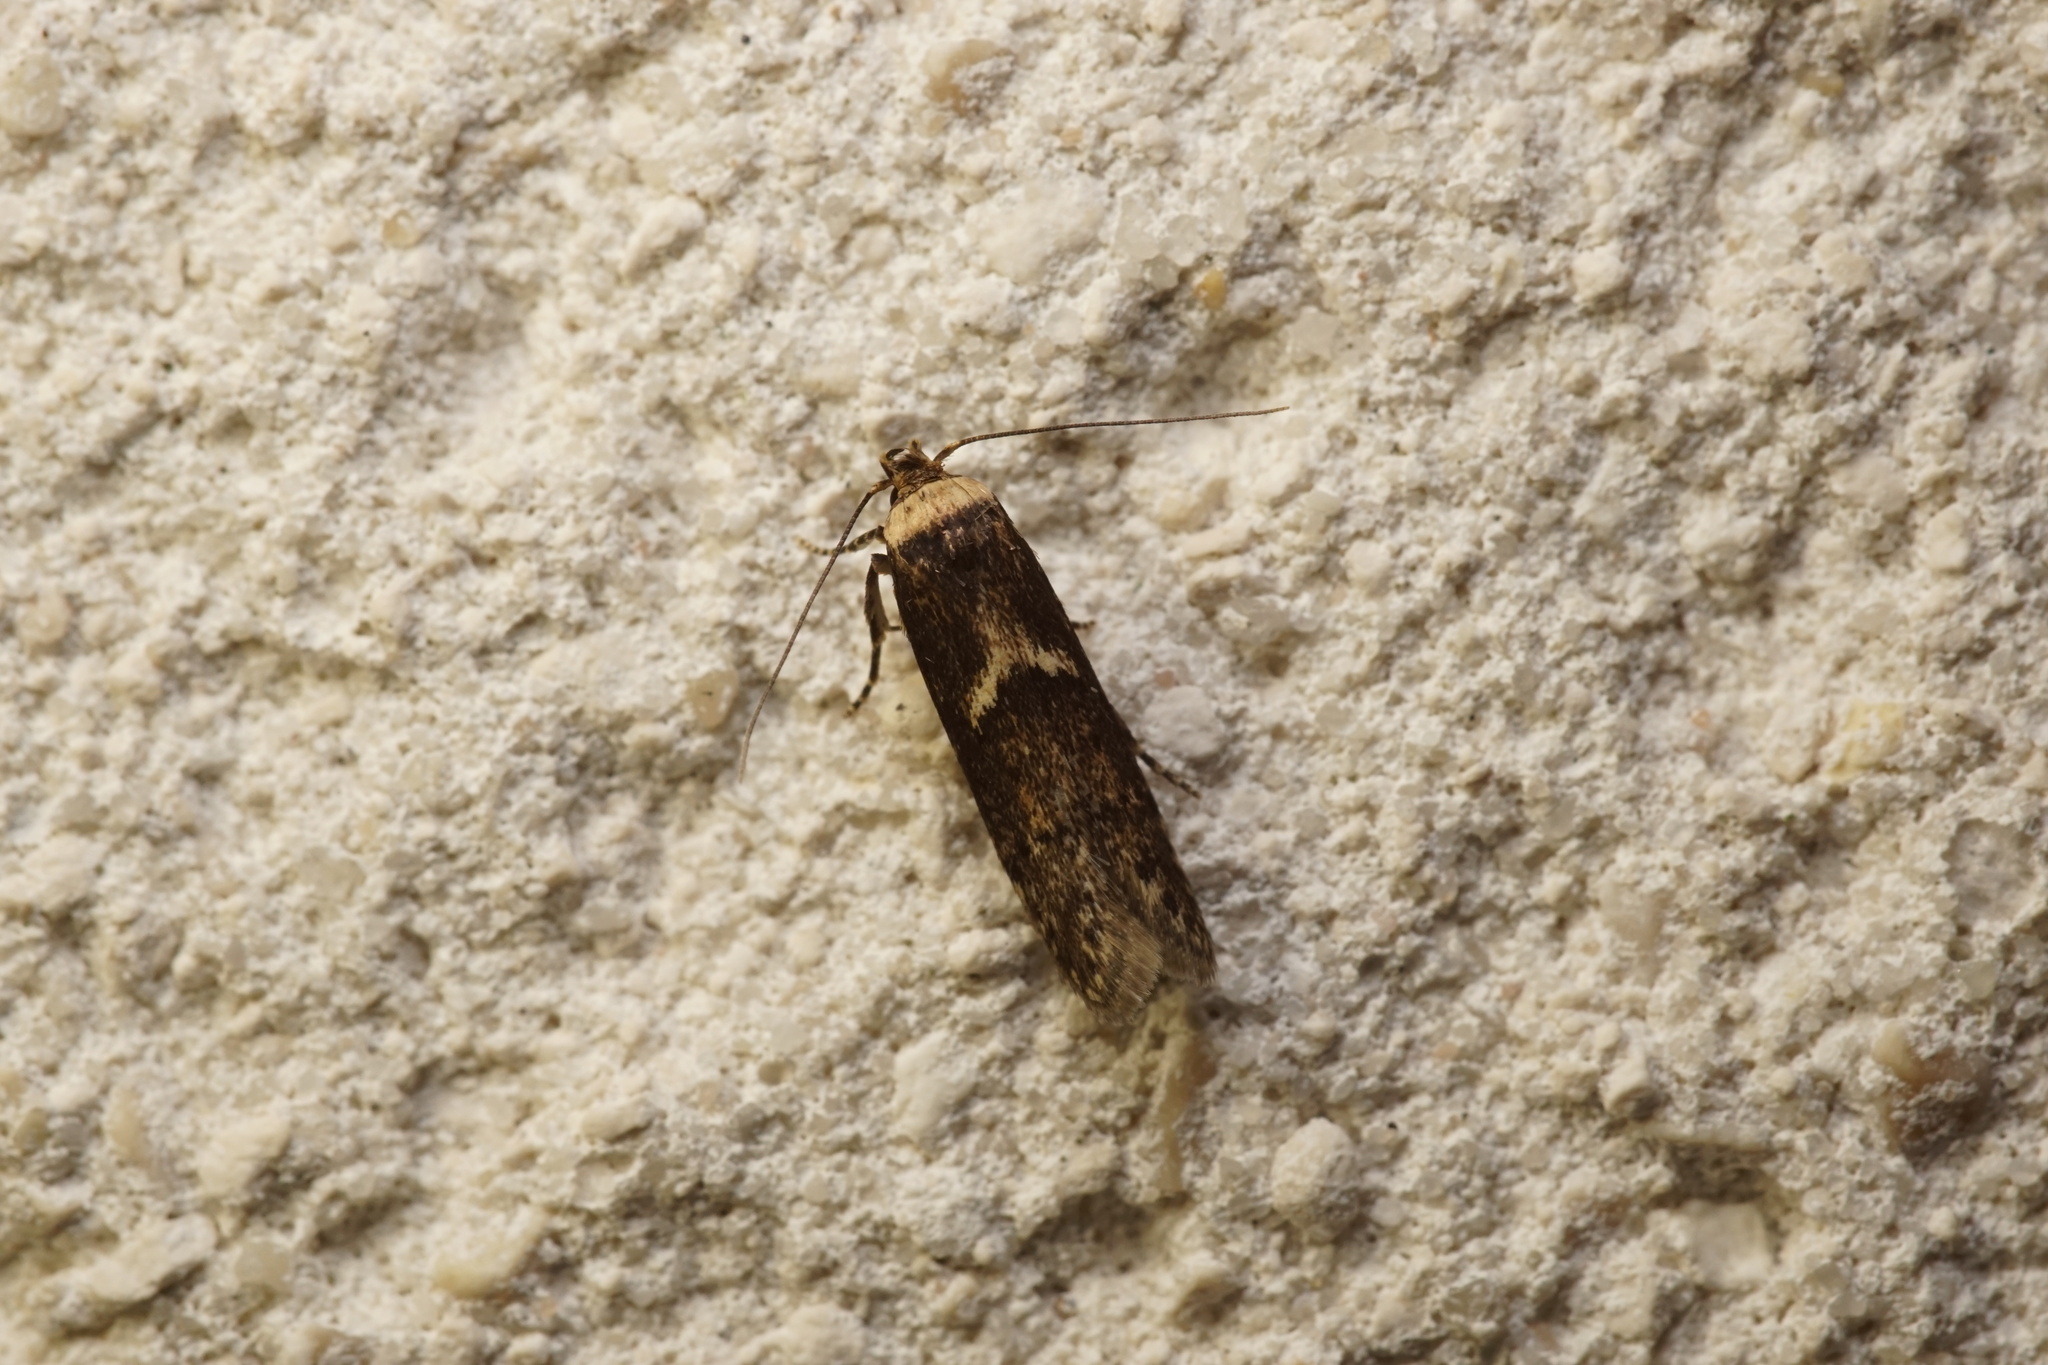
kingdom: Animalia
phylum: Arthropoda
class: Insecta
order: Lepidoptera
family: Blastobasidae
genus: Blastobasis
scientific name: Blastobasis adustella
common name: Dingy dowd
